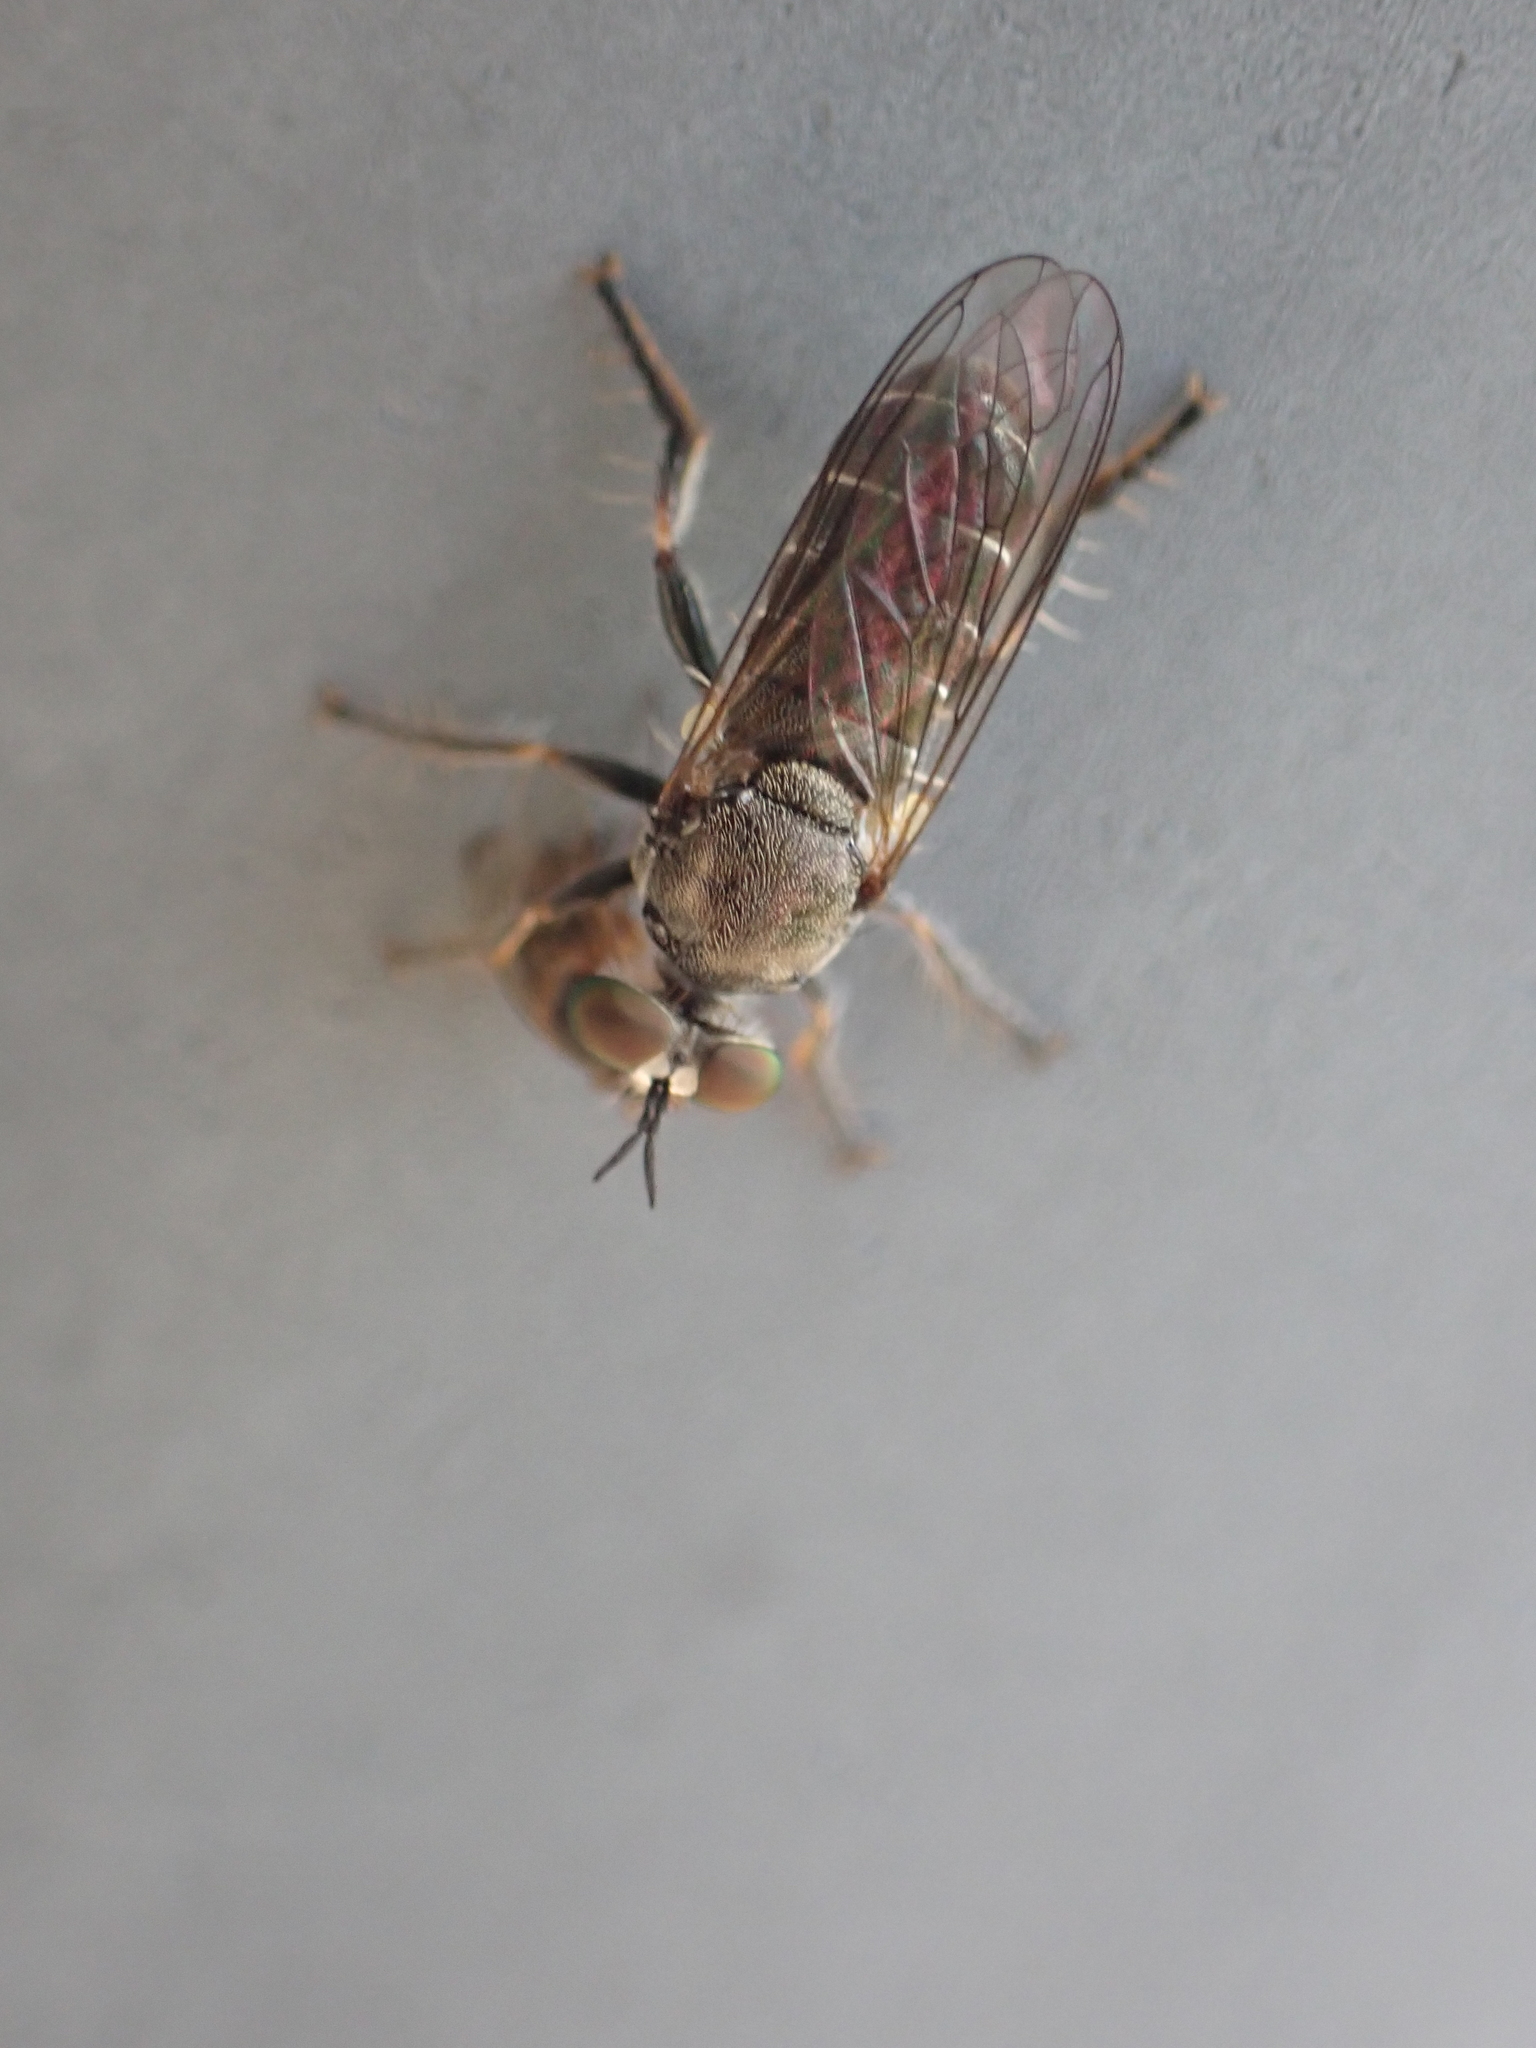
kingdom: Animalia
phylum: Arthropoda
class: Insecta
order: Diptera
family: Asilidae
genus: Atomosia
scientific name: Atomosia puella
